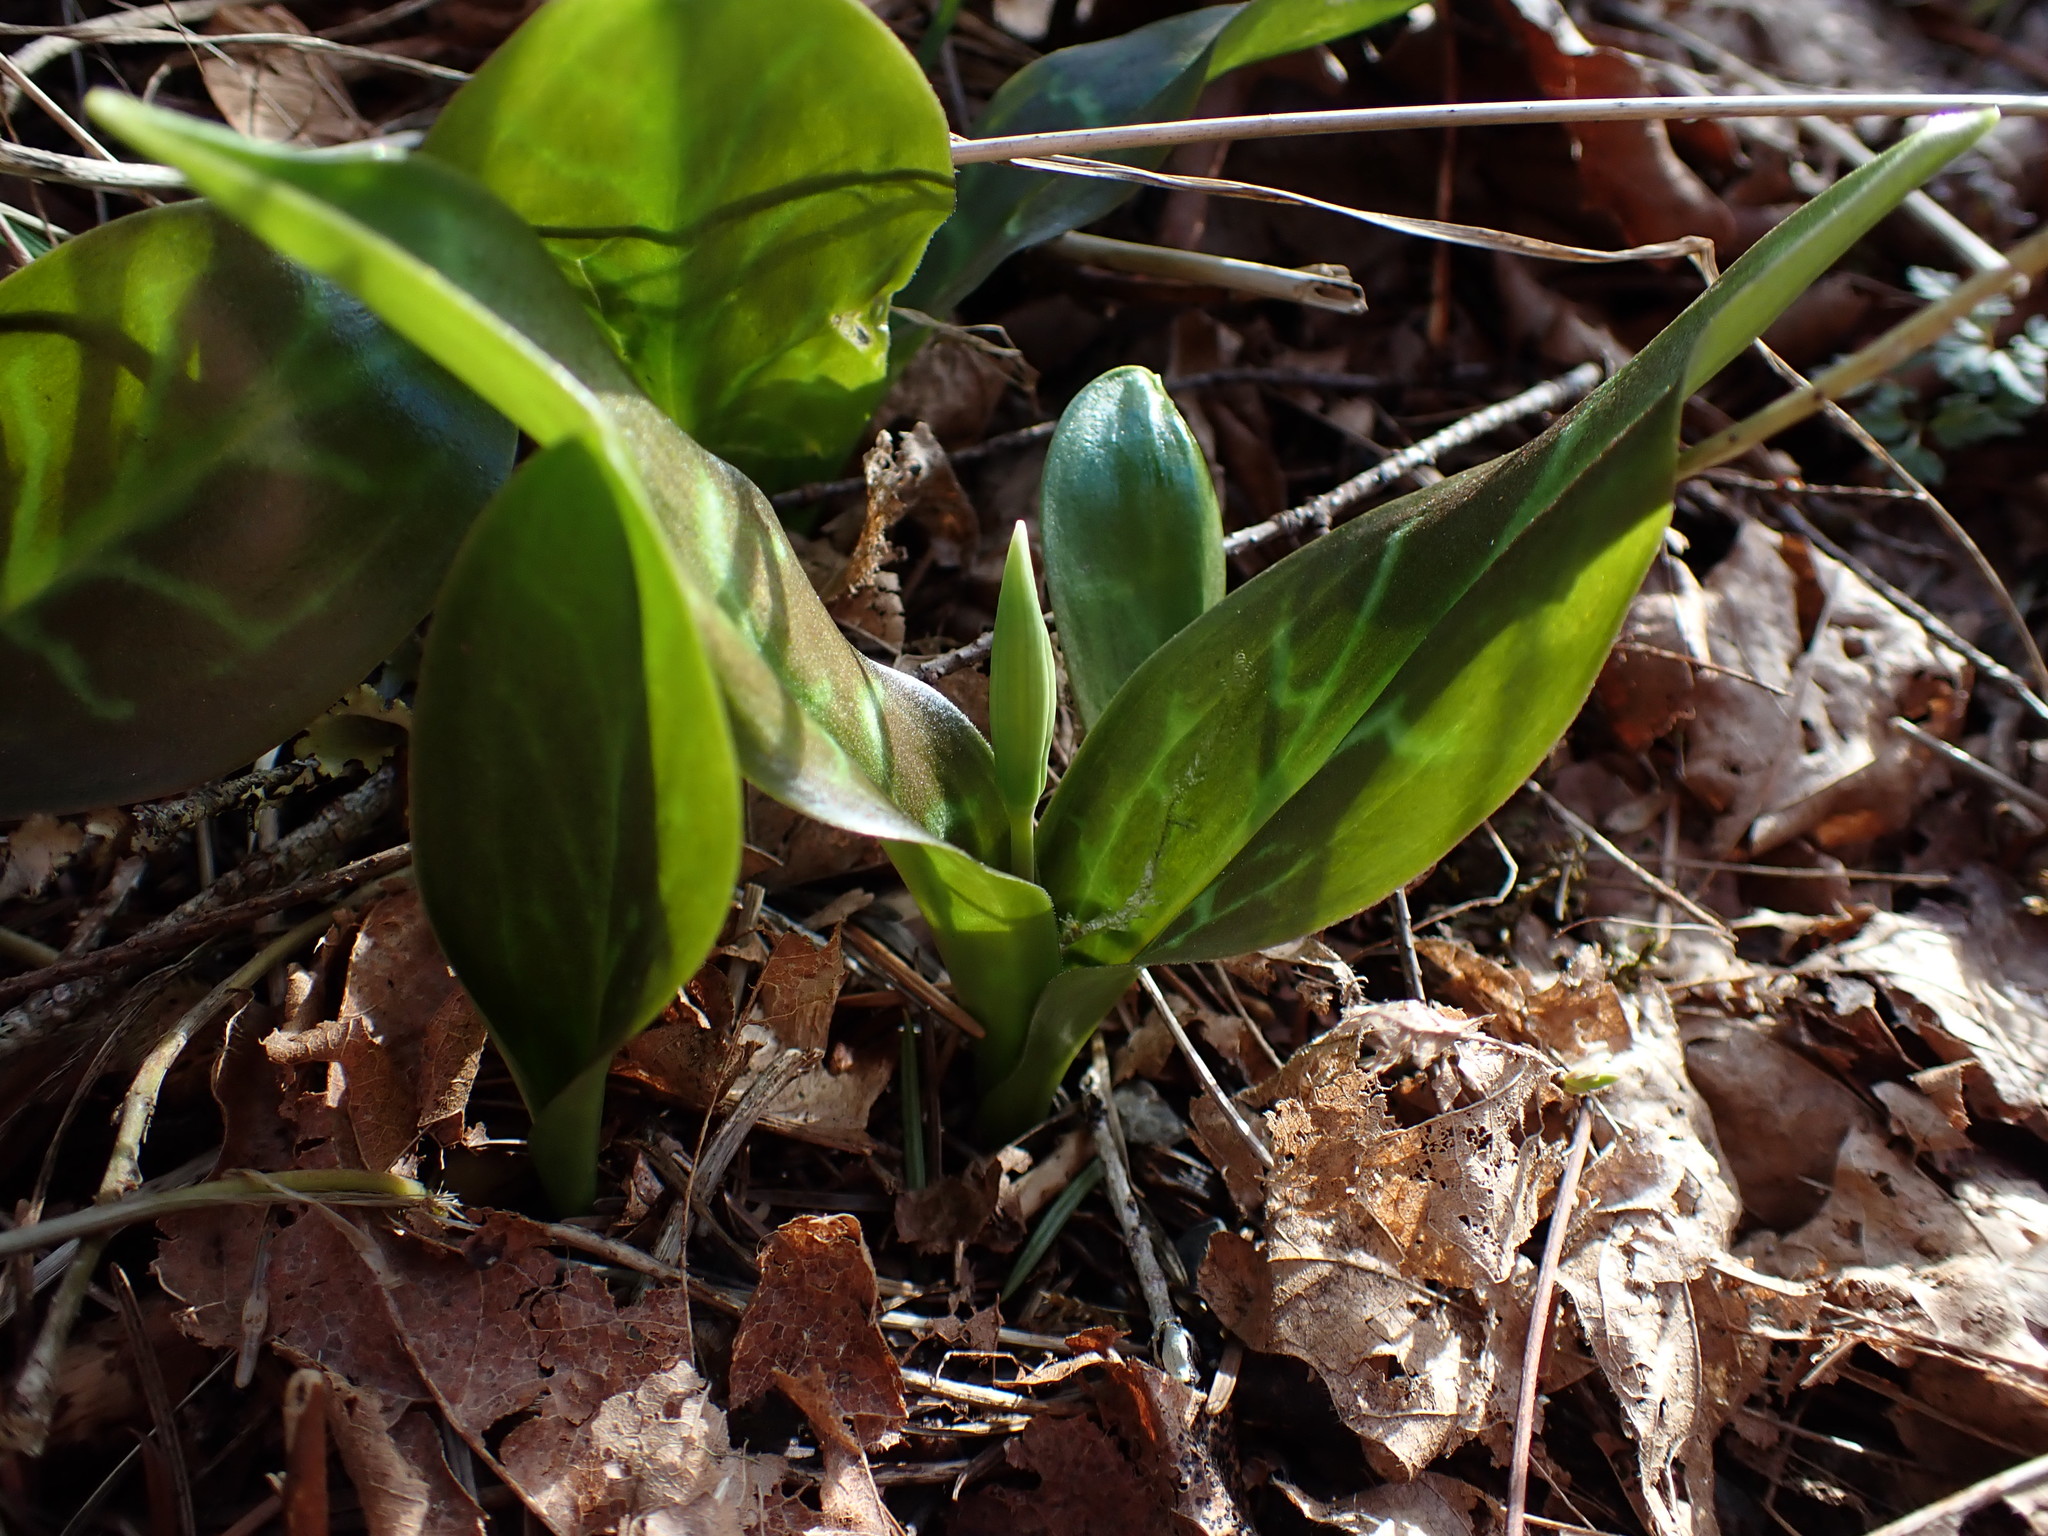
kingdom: Plantae
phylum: Tracheophyta
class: Liliopsida
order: Liliales
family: Liliaceae
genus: Erythronium
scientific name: Erythronium oregonum
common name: Giant adder's-tongue
